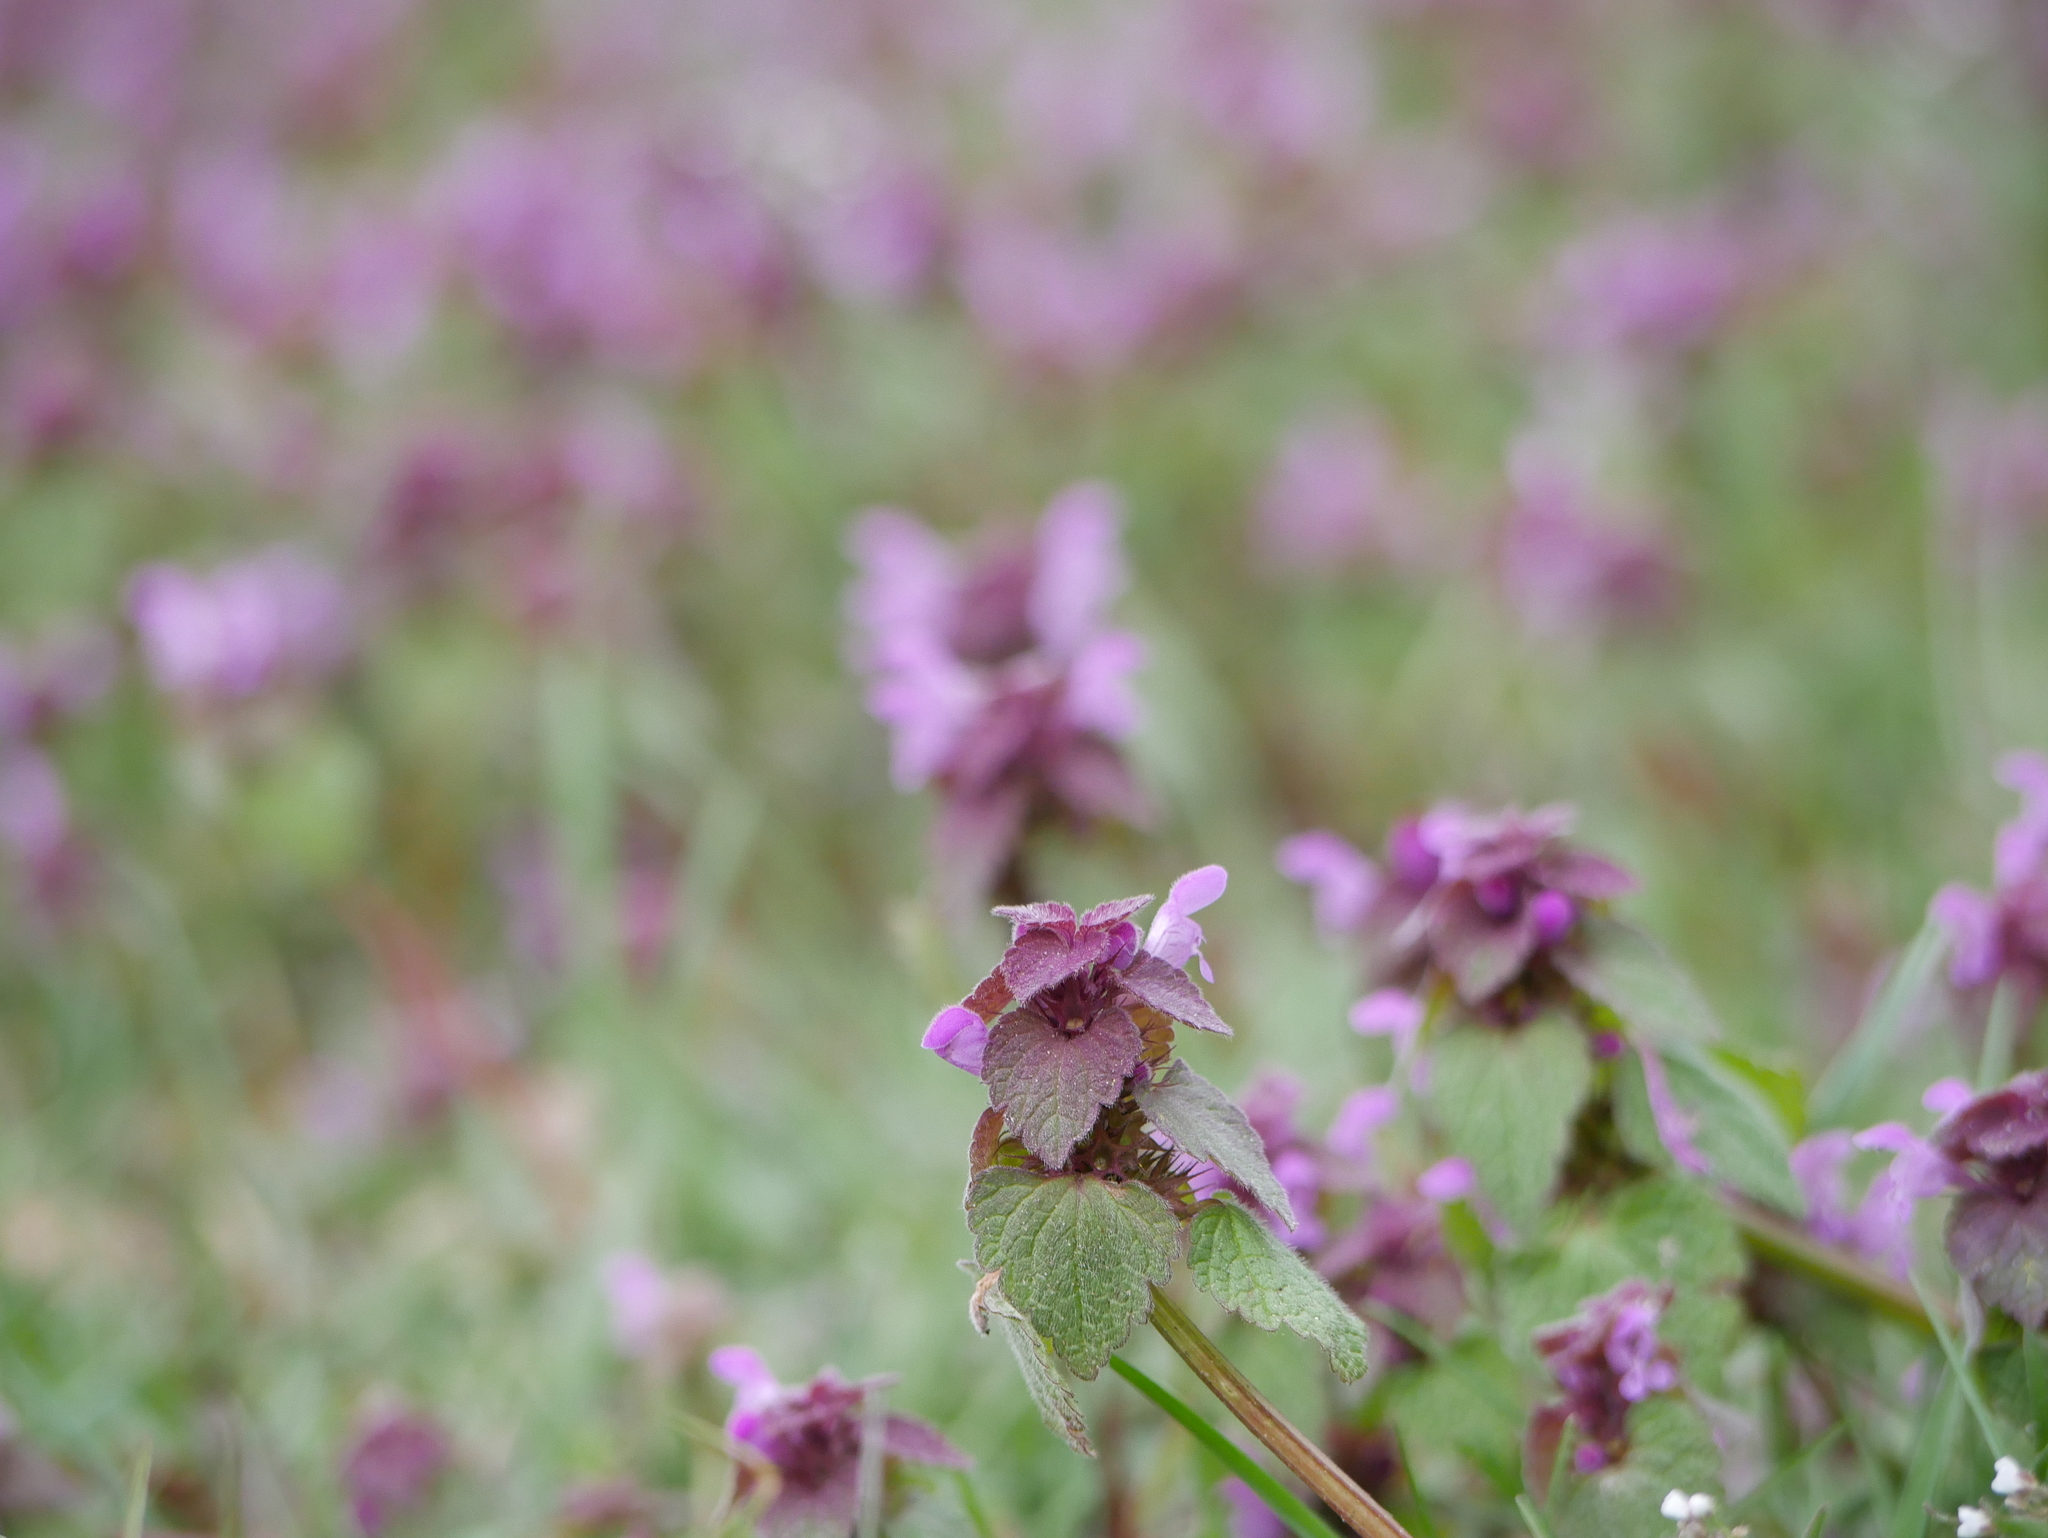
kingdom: Plantae
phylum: Tracheophyta
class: Magnoliopsida
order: Lamiales
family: Lamiaceae
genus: Lamium
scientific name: Lamium purpureum
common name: Red dead-nettle
